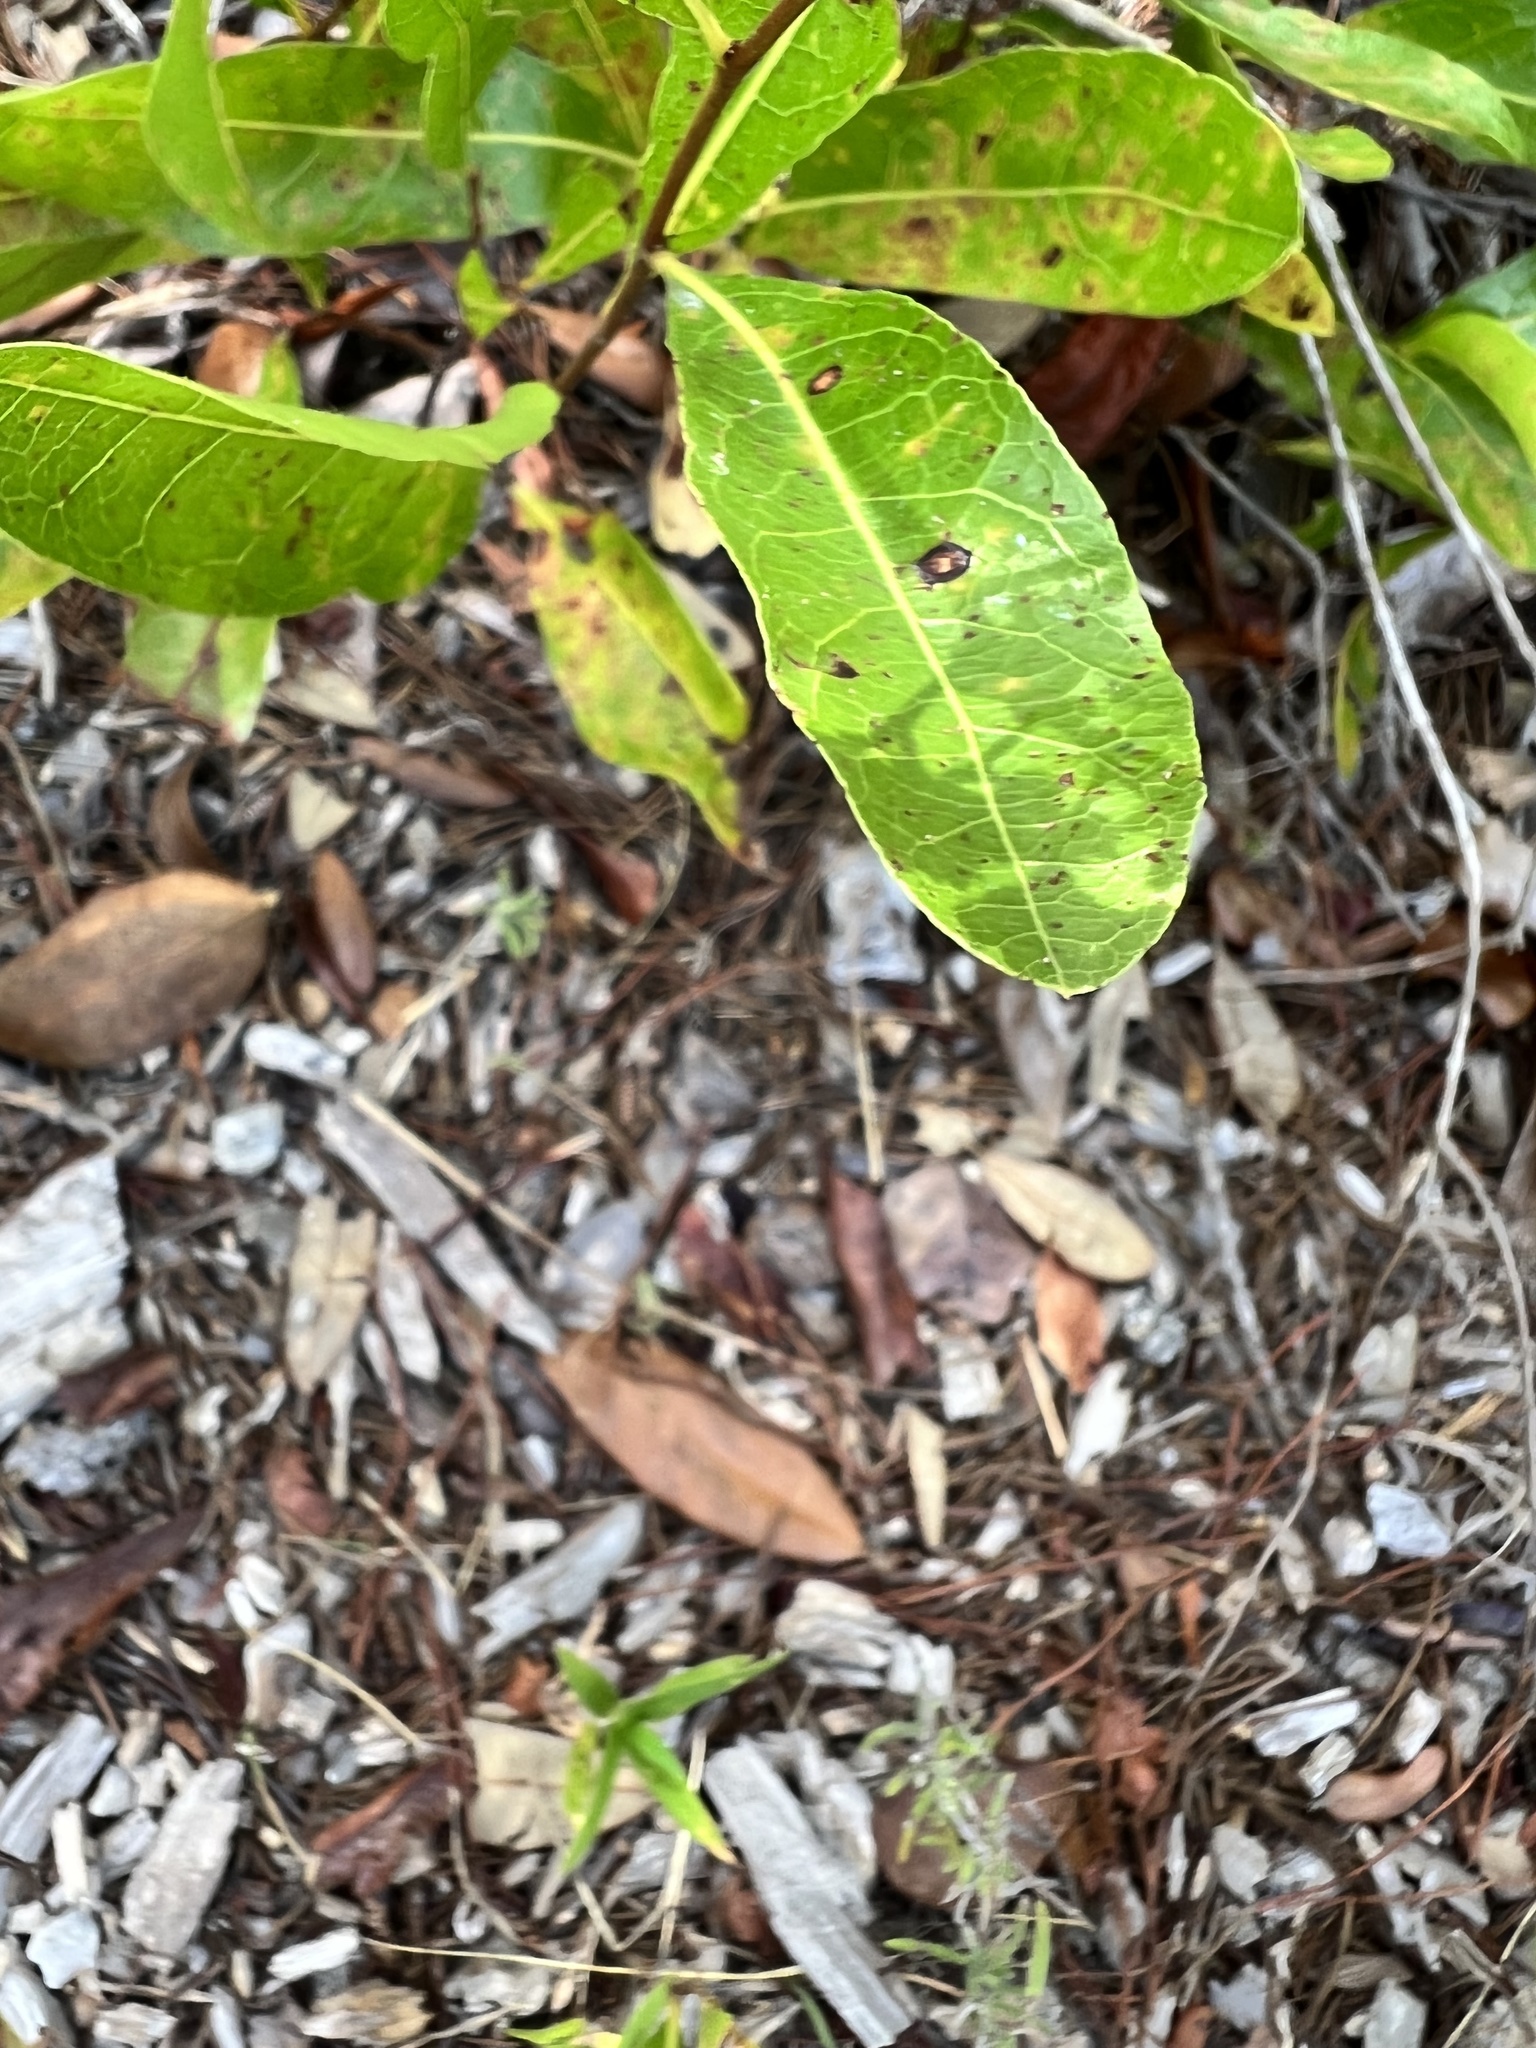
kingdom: Plantae
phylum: Tracheophyta
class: Magnoliopsida
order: Malpighiales
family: Chrysobalanaceae
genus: Geobalanus
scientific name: Geobalanus oblongifolius
